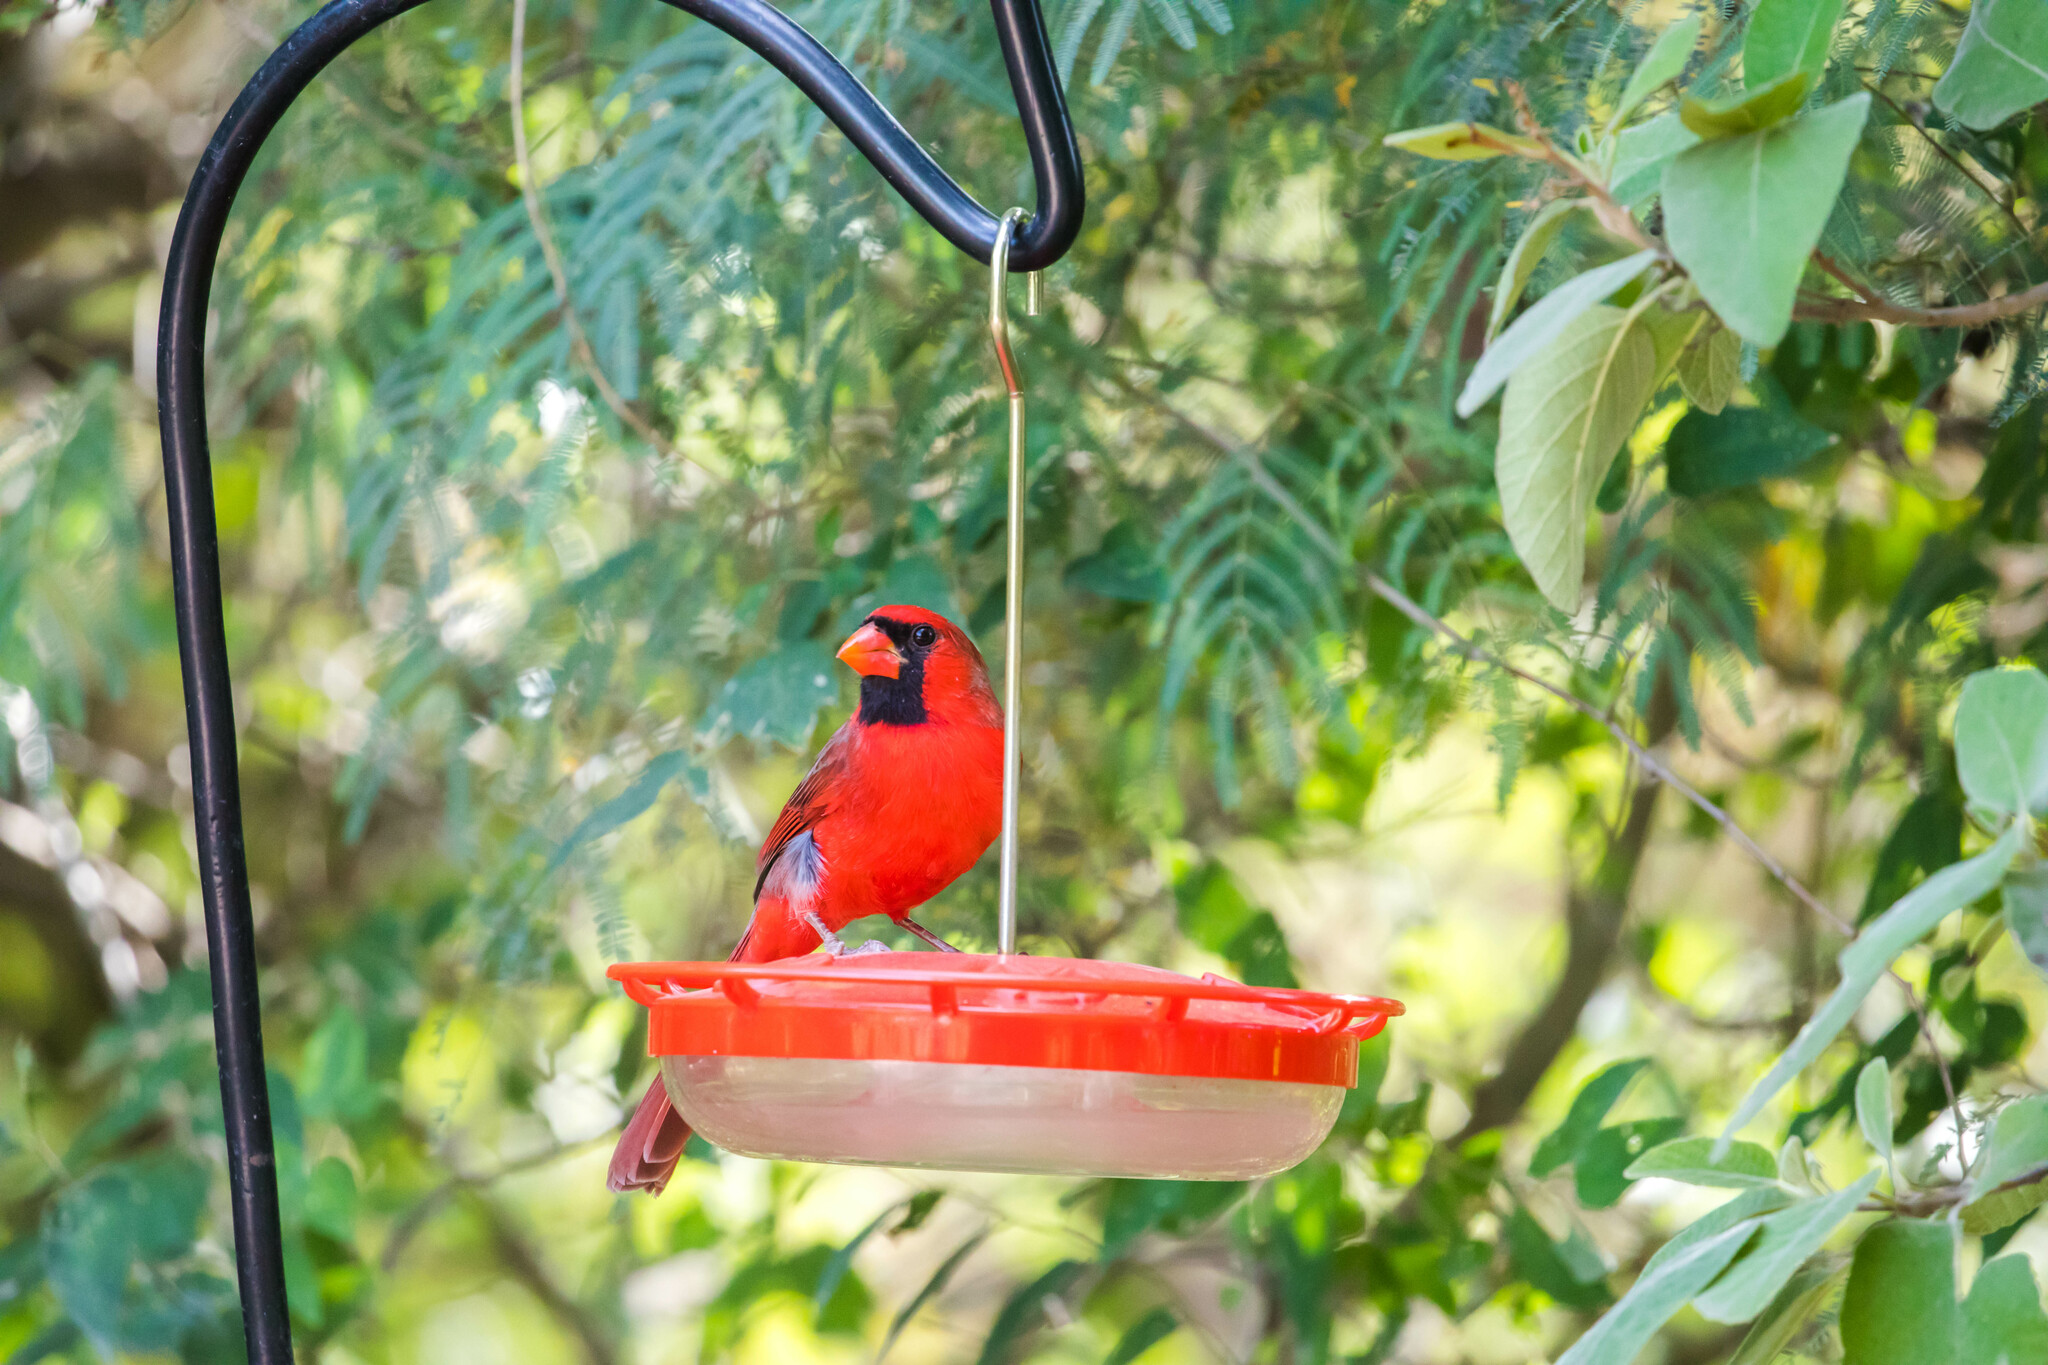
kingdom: Animalia
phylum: Chordata
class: Aves
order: Passeriformes
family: Cardinalidae
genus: Cardinalis
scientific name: Cardinalis cardinalis
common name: Northern cardinal
